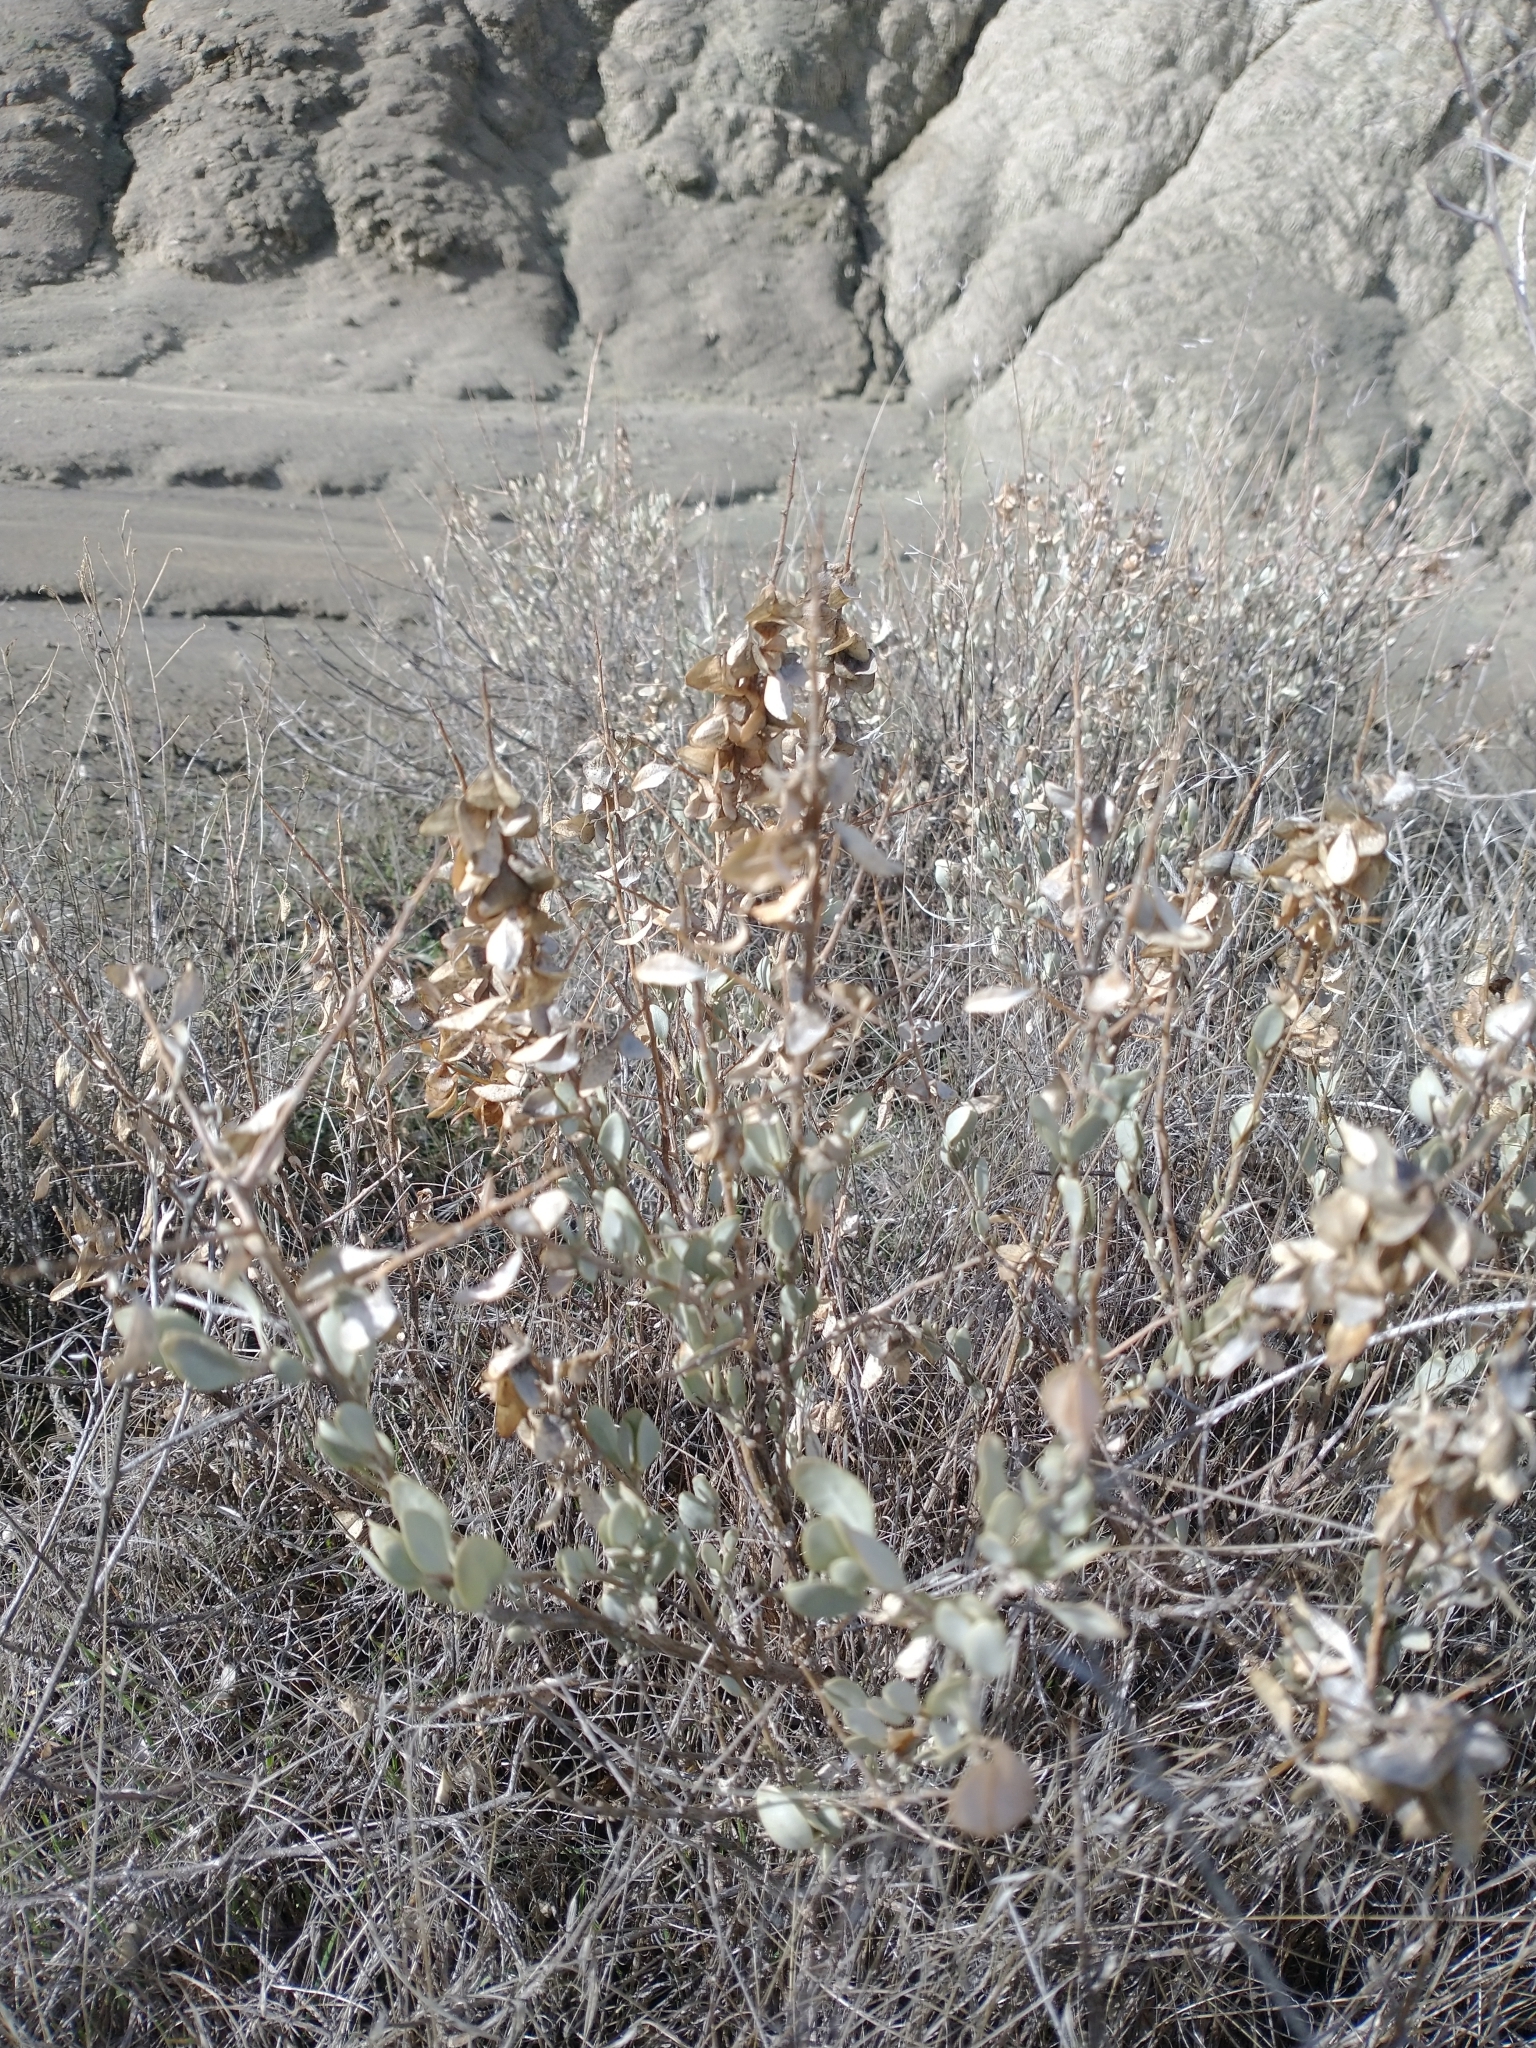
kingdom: Plantae
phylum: Tracheophyta
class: Magnoliopsida
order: Caryophyllales
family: Amaranthaceae
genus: Atriplex
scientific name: Atriplex confertifolia
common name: Shadscale
